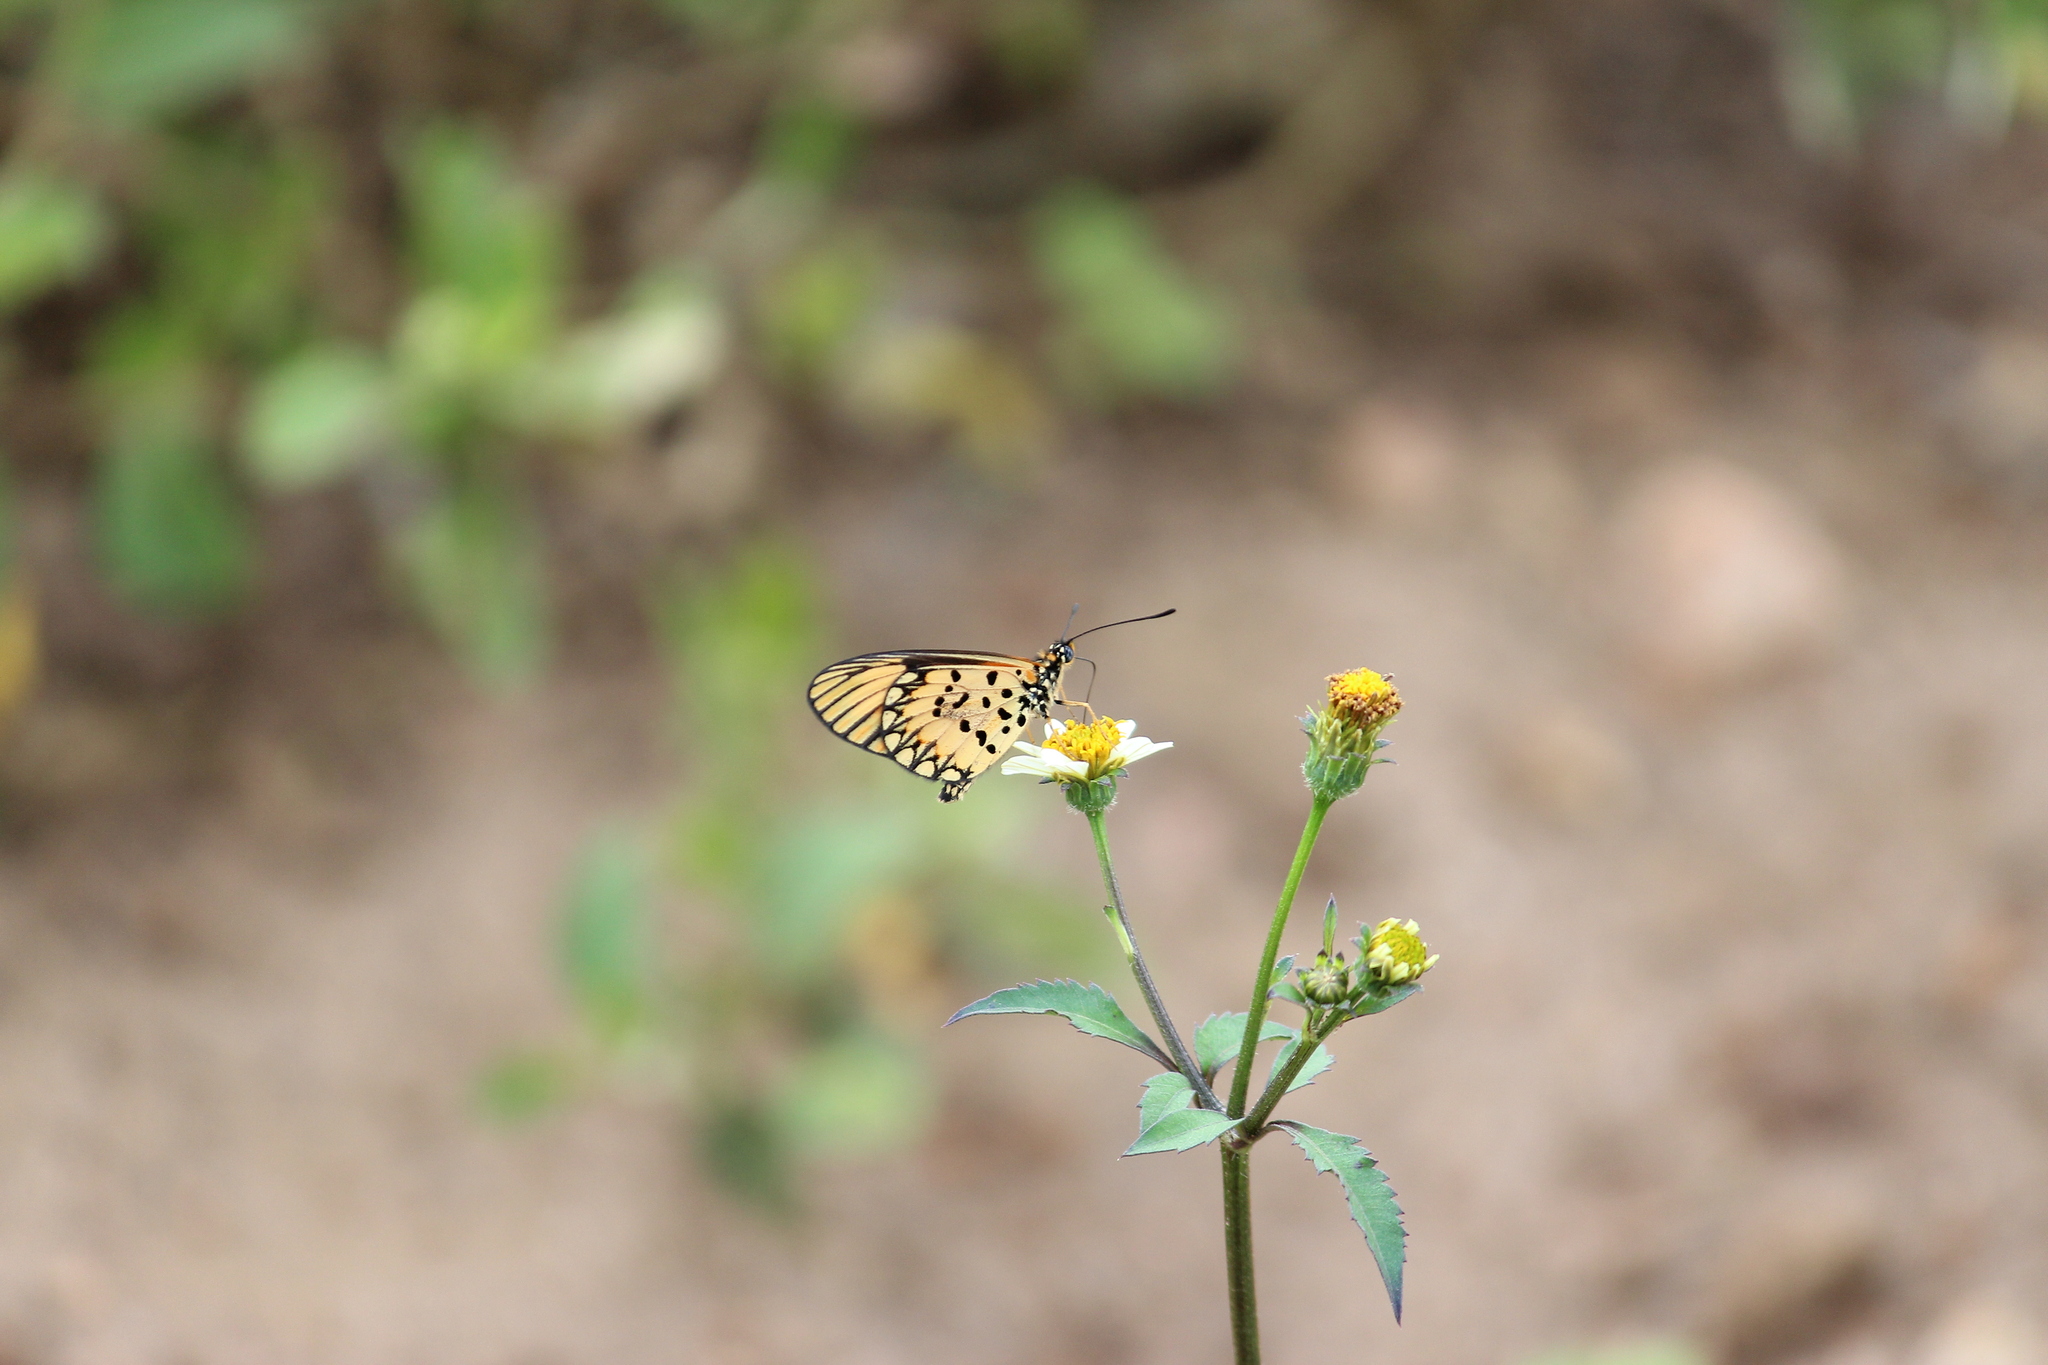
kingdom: Animalia
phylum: Arthropoda
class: Insecta
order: Lepidoptera
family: Nymphalidae
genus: Acraea
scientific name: Acraea Telchinia serena
